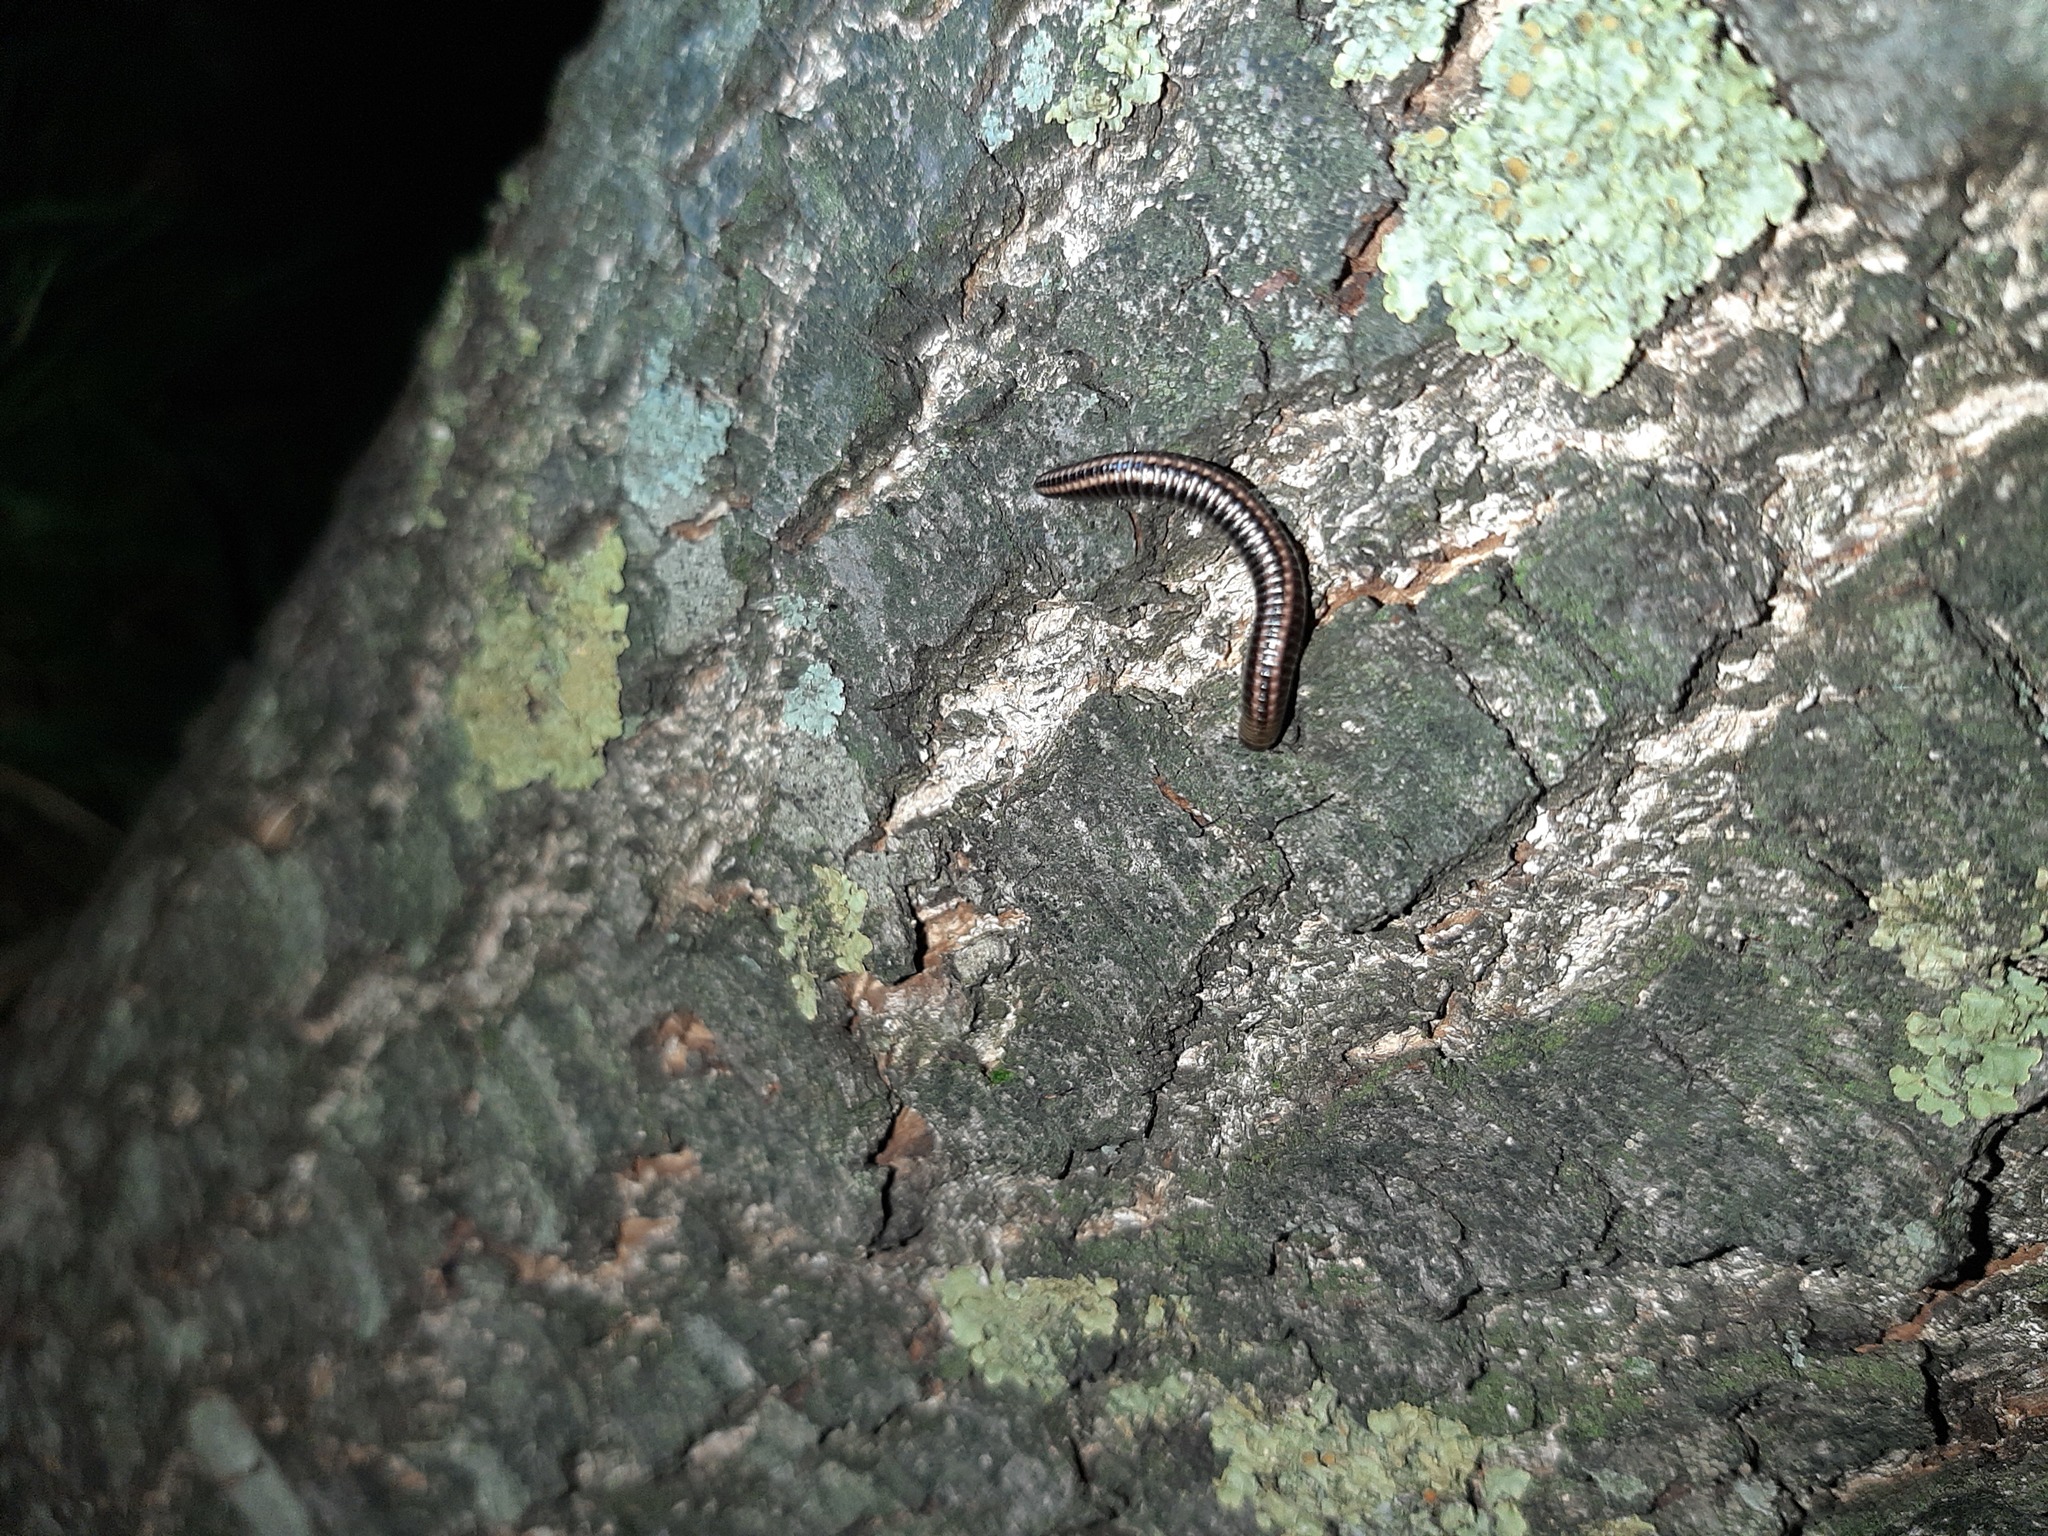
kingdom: Animalia
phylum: Arthropoda
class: Diplopoda
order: Julida
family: Julidae
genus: Ommatoiulus
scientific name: Ommatoiulus sabulosus
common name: Striped millipede
